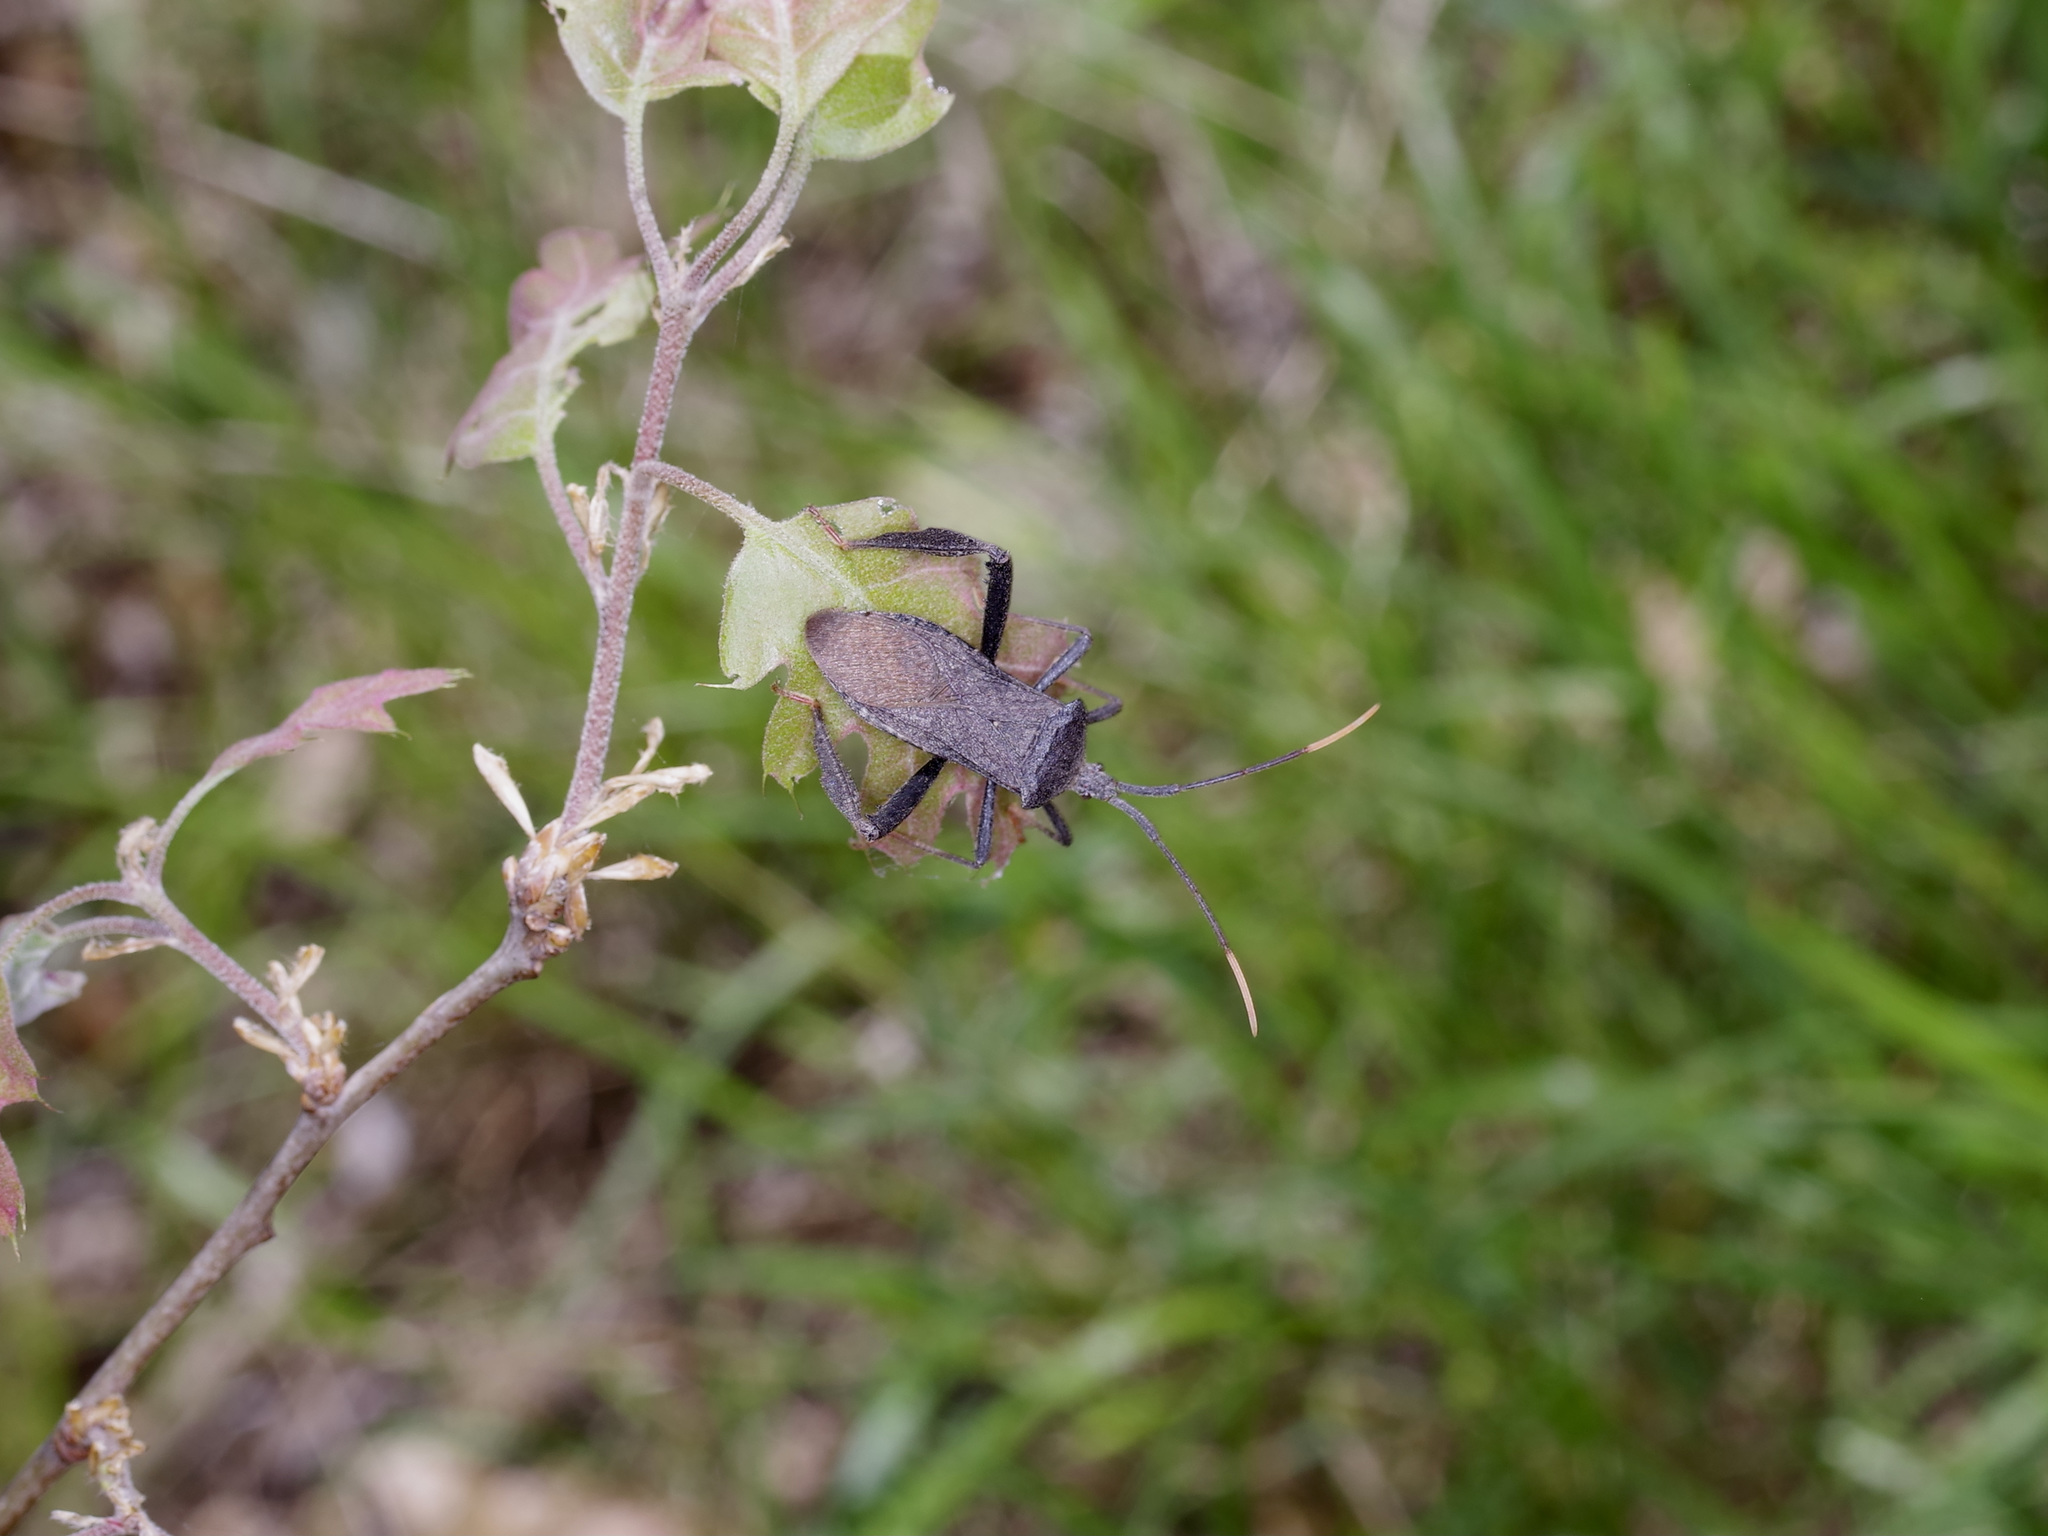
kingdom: Animalia
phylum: Arthropoda
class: Insecta
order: Hemiptera
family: Coreidae
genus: Acanthocephala
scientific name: Acanthocephala terminalis
